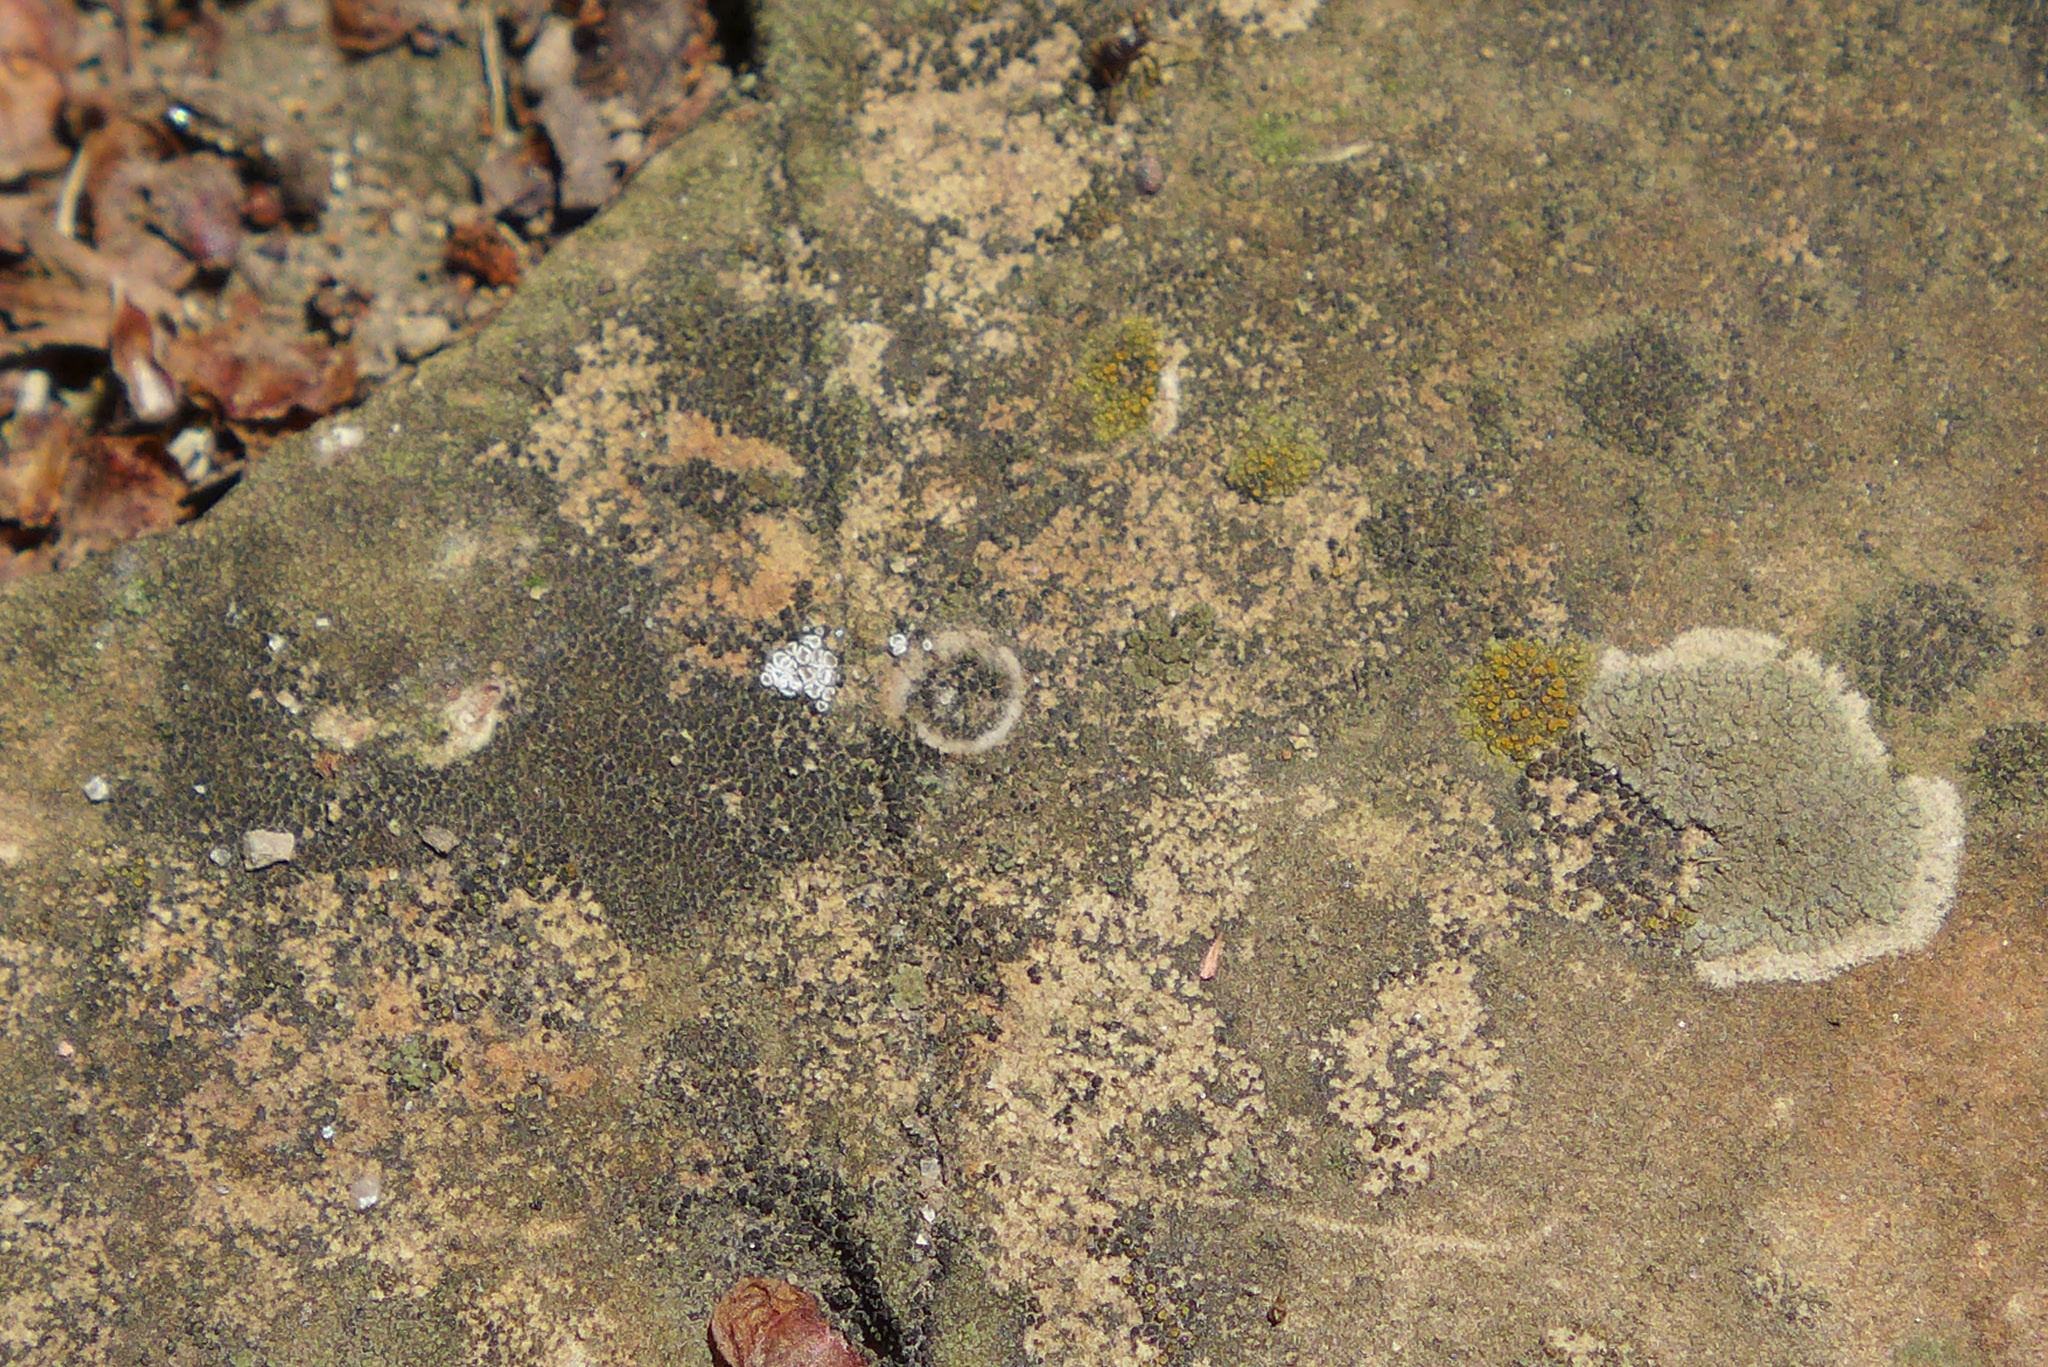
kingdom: Fungi
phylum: Ascomycota
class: Lecanoromycetes
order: Lecanorales
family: Lecanoraceae
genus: Polyozosia
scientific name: Polyozosia dispersa
